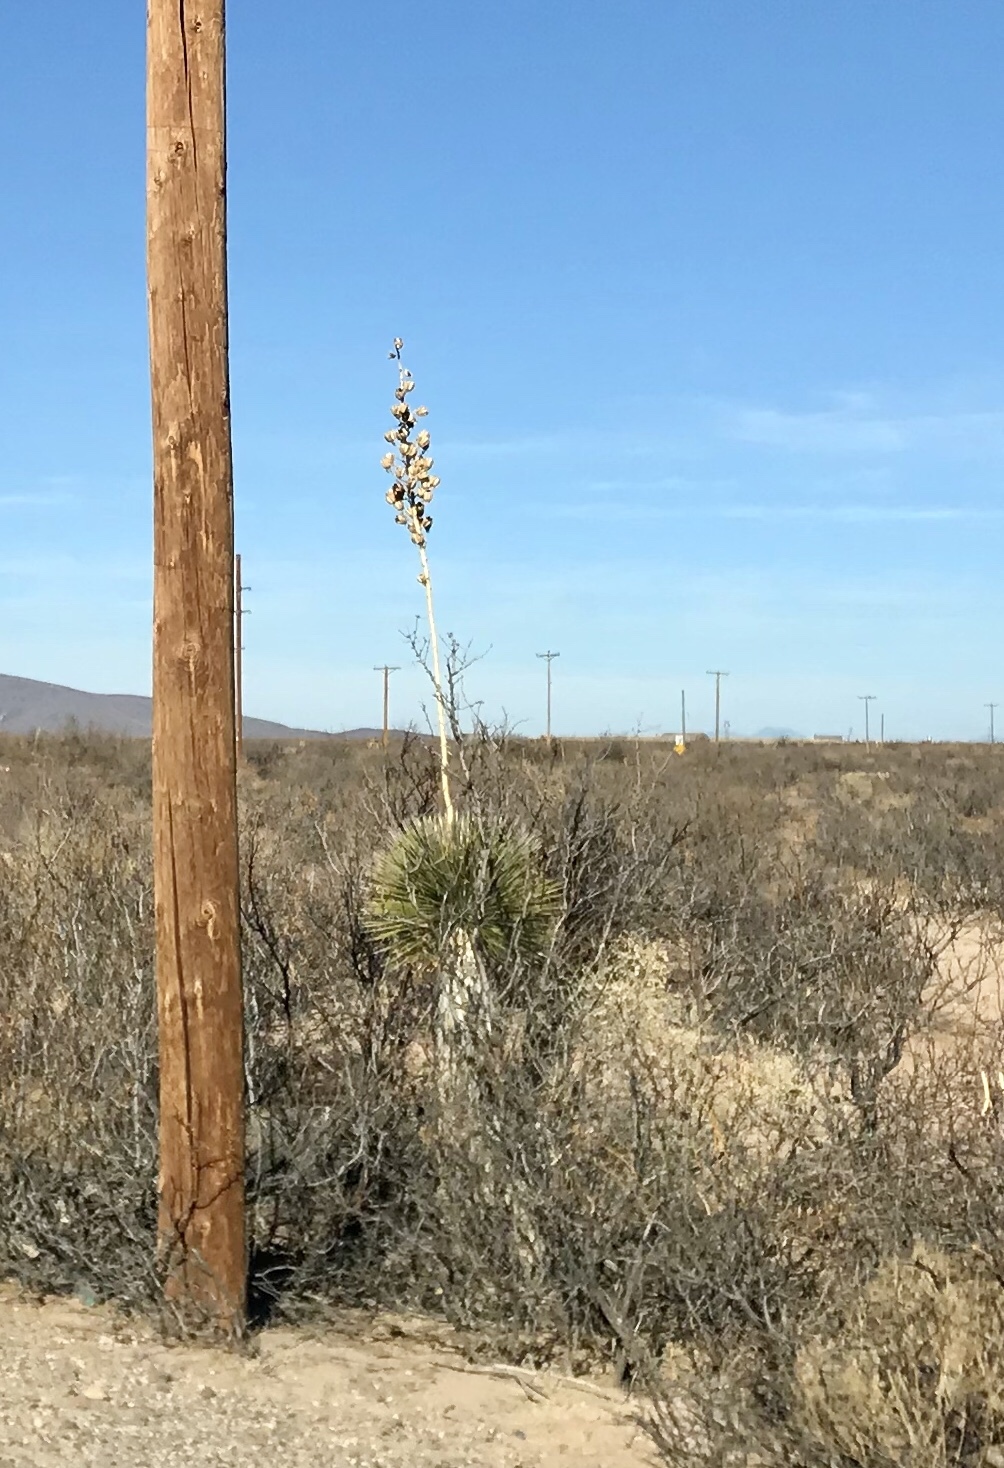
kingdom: Plantae
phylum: Tracheophyta
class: Liliopsida
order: Asparagales
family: Asparagaceae
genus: Yucca
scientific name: Yucca elata
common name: Palmella
